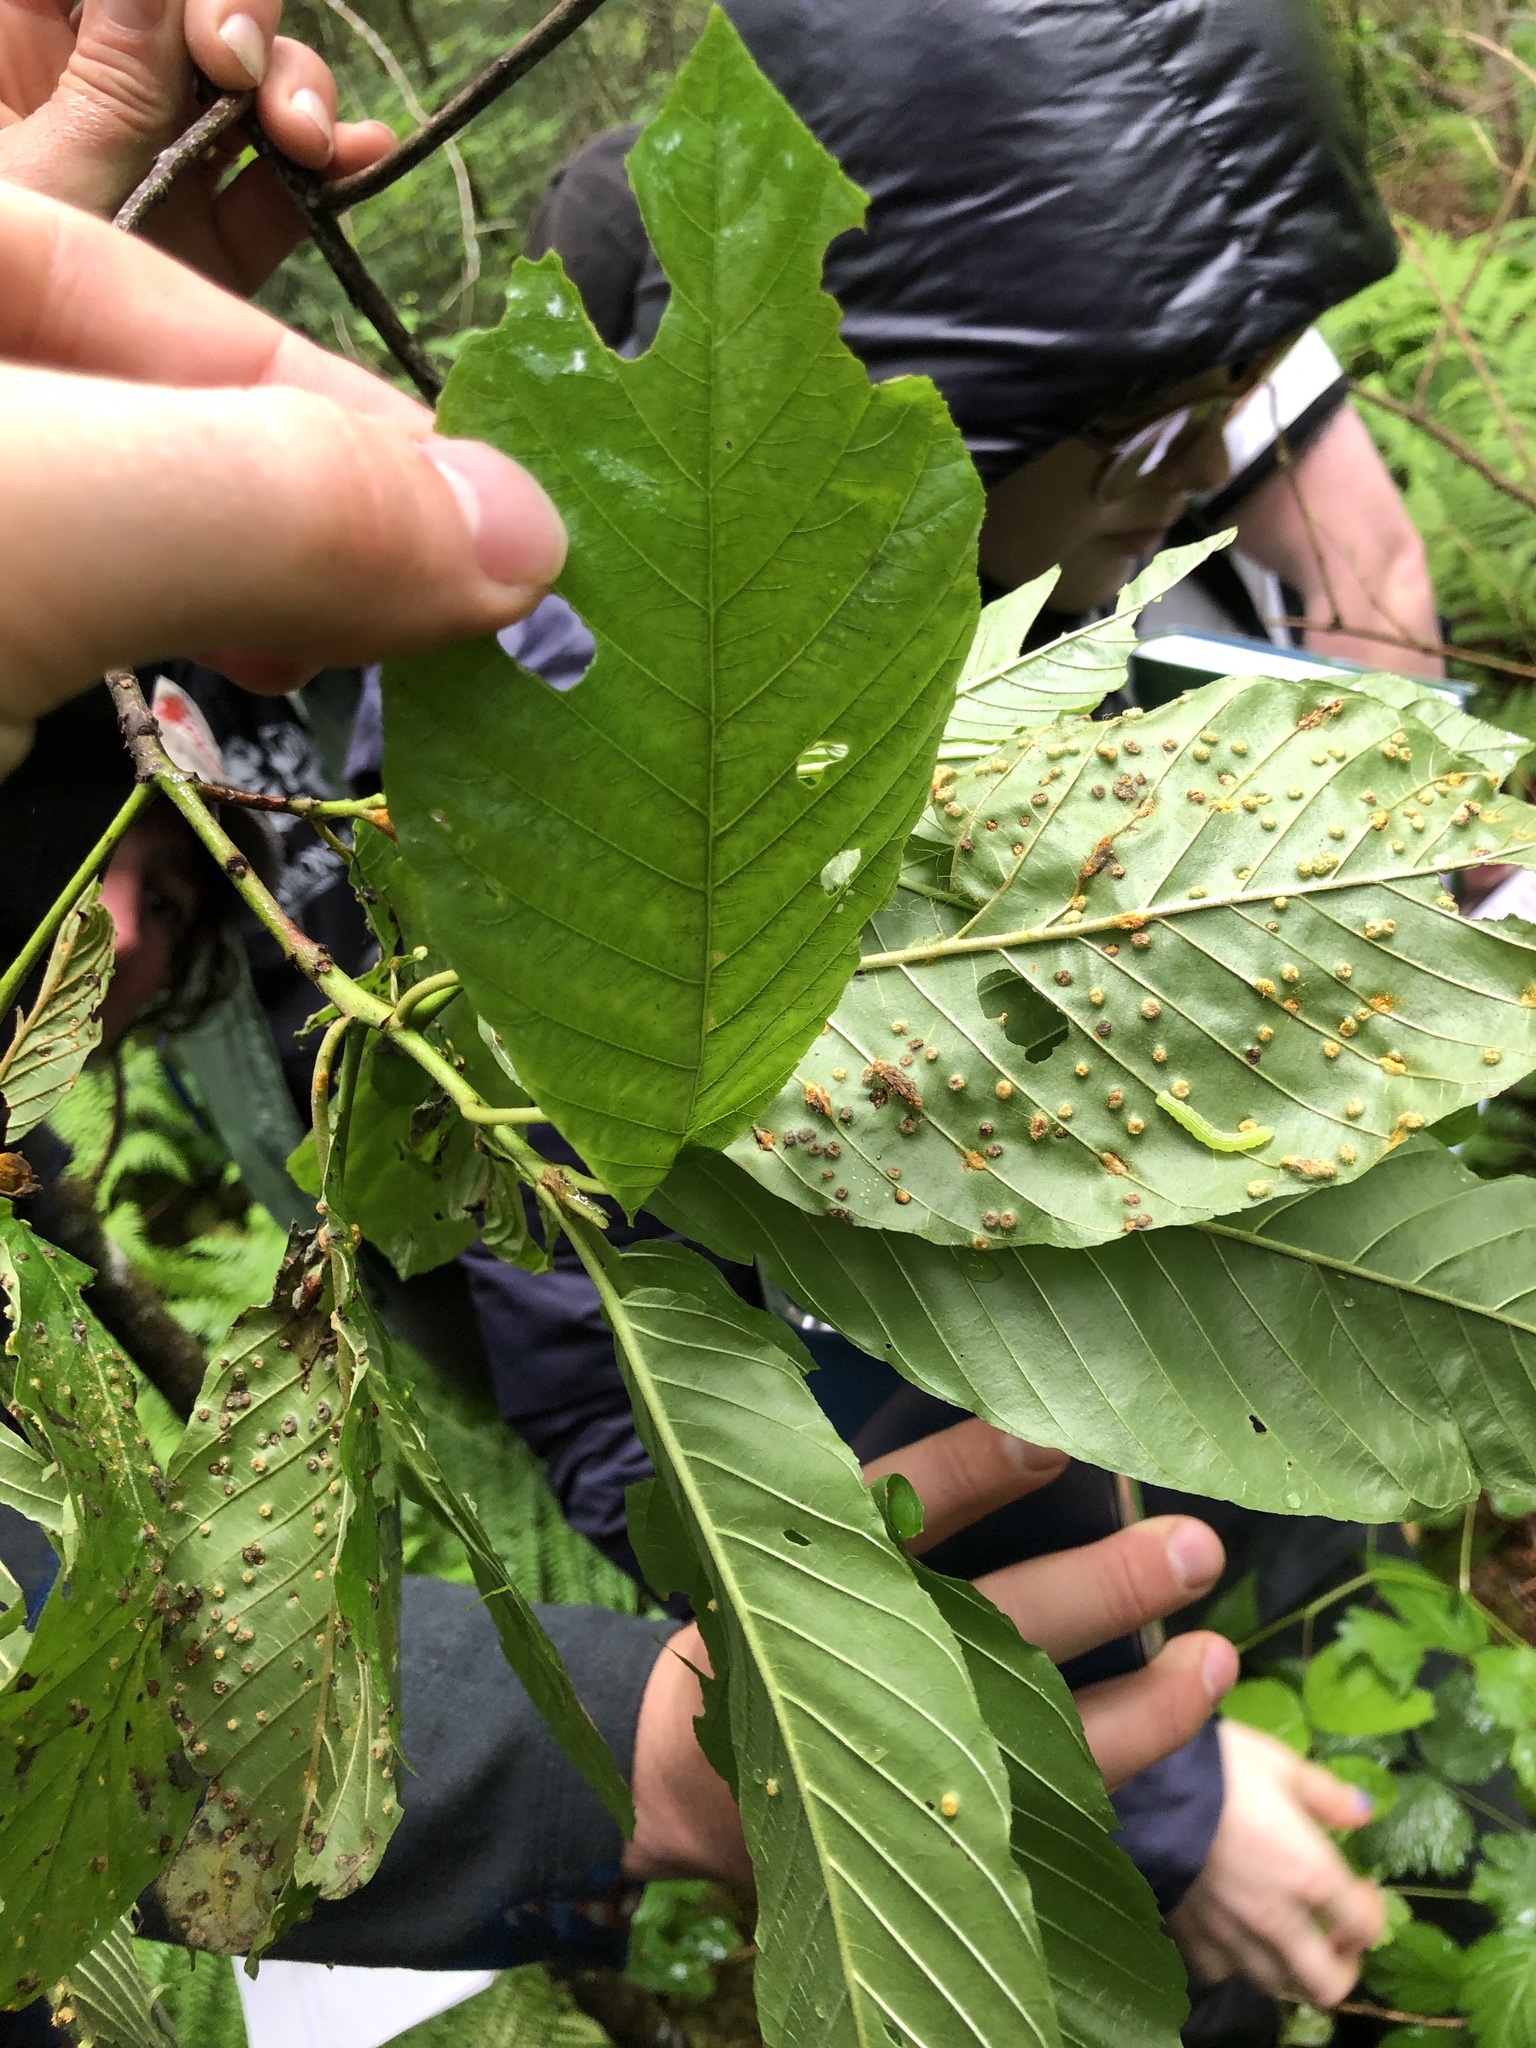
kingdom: Plantae
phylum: Tracheophyta
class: Magnoliopsida
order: Rosales
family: Rhamnaceae
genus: Frangula
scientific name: Frangula purshiana
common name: Cascara buckthorn
